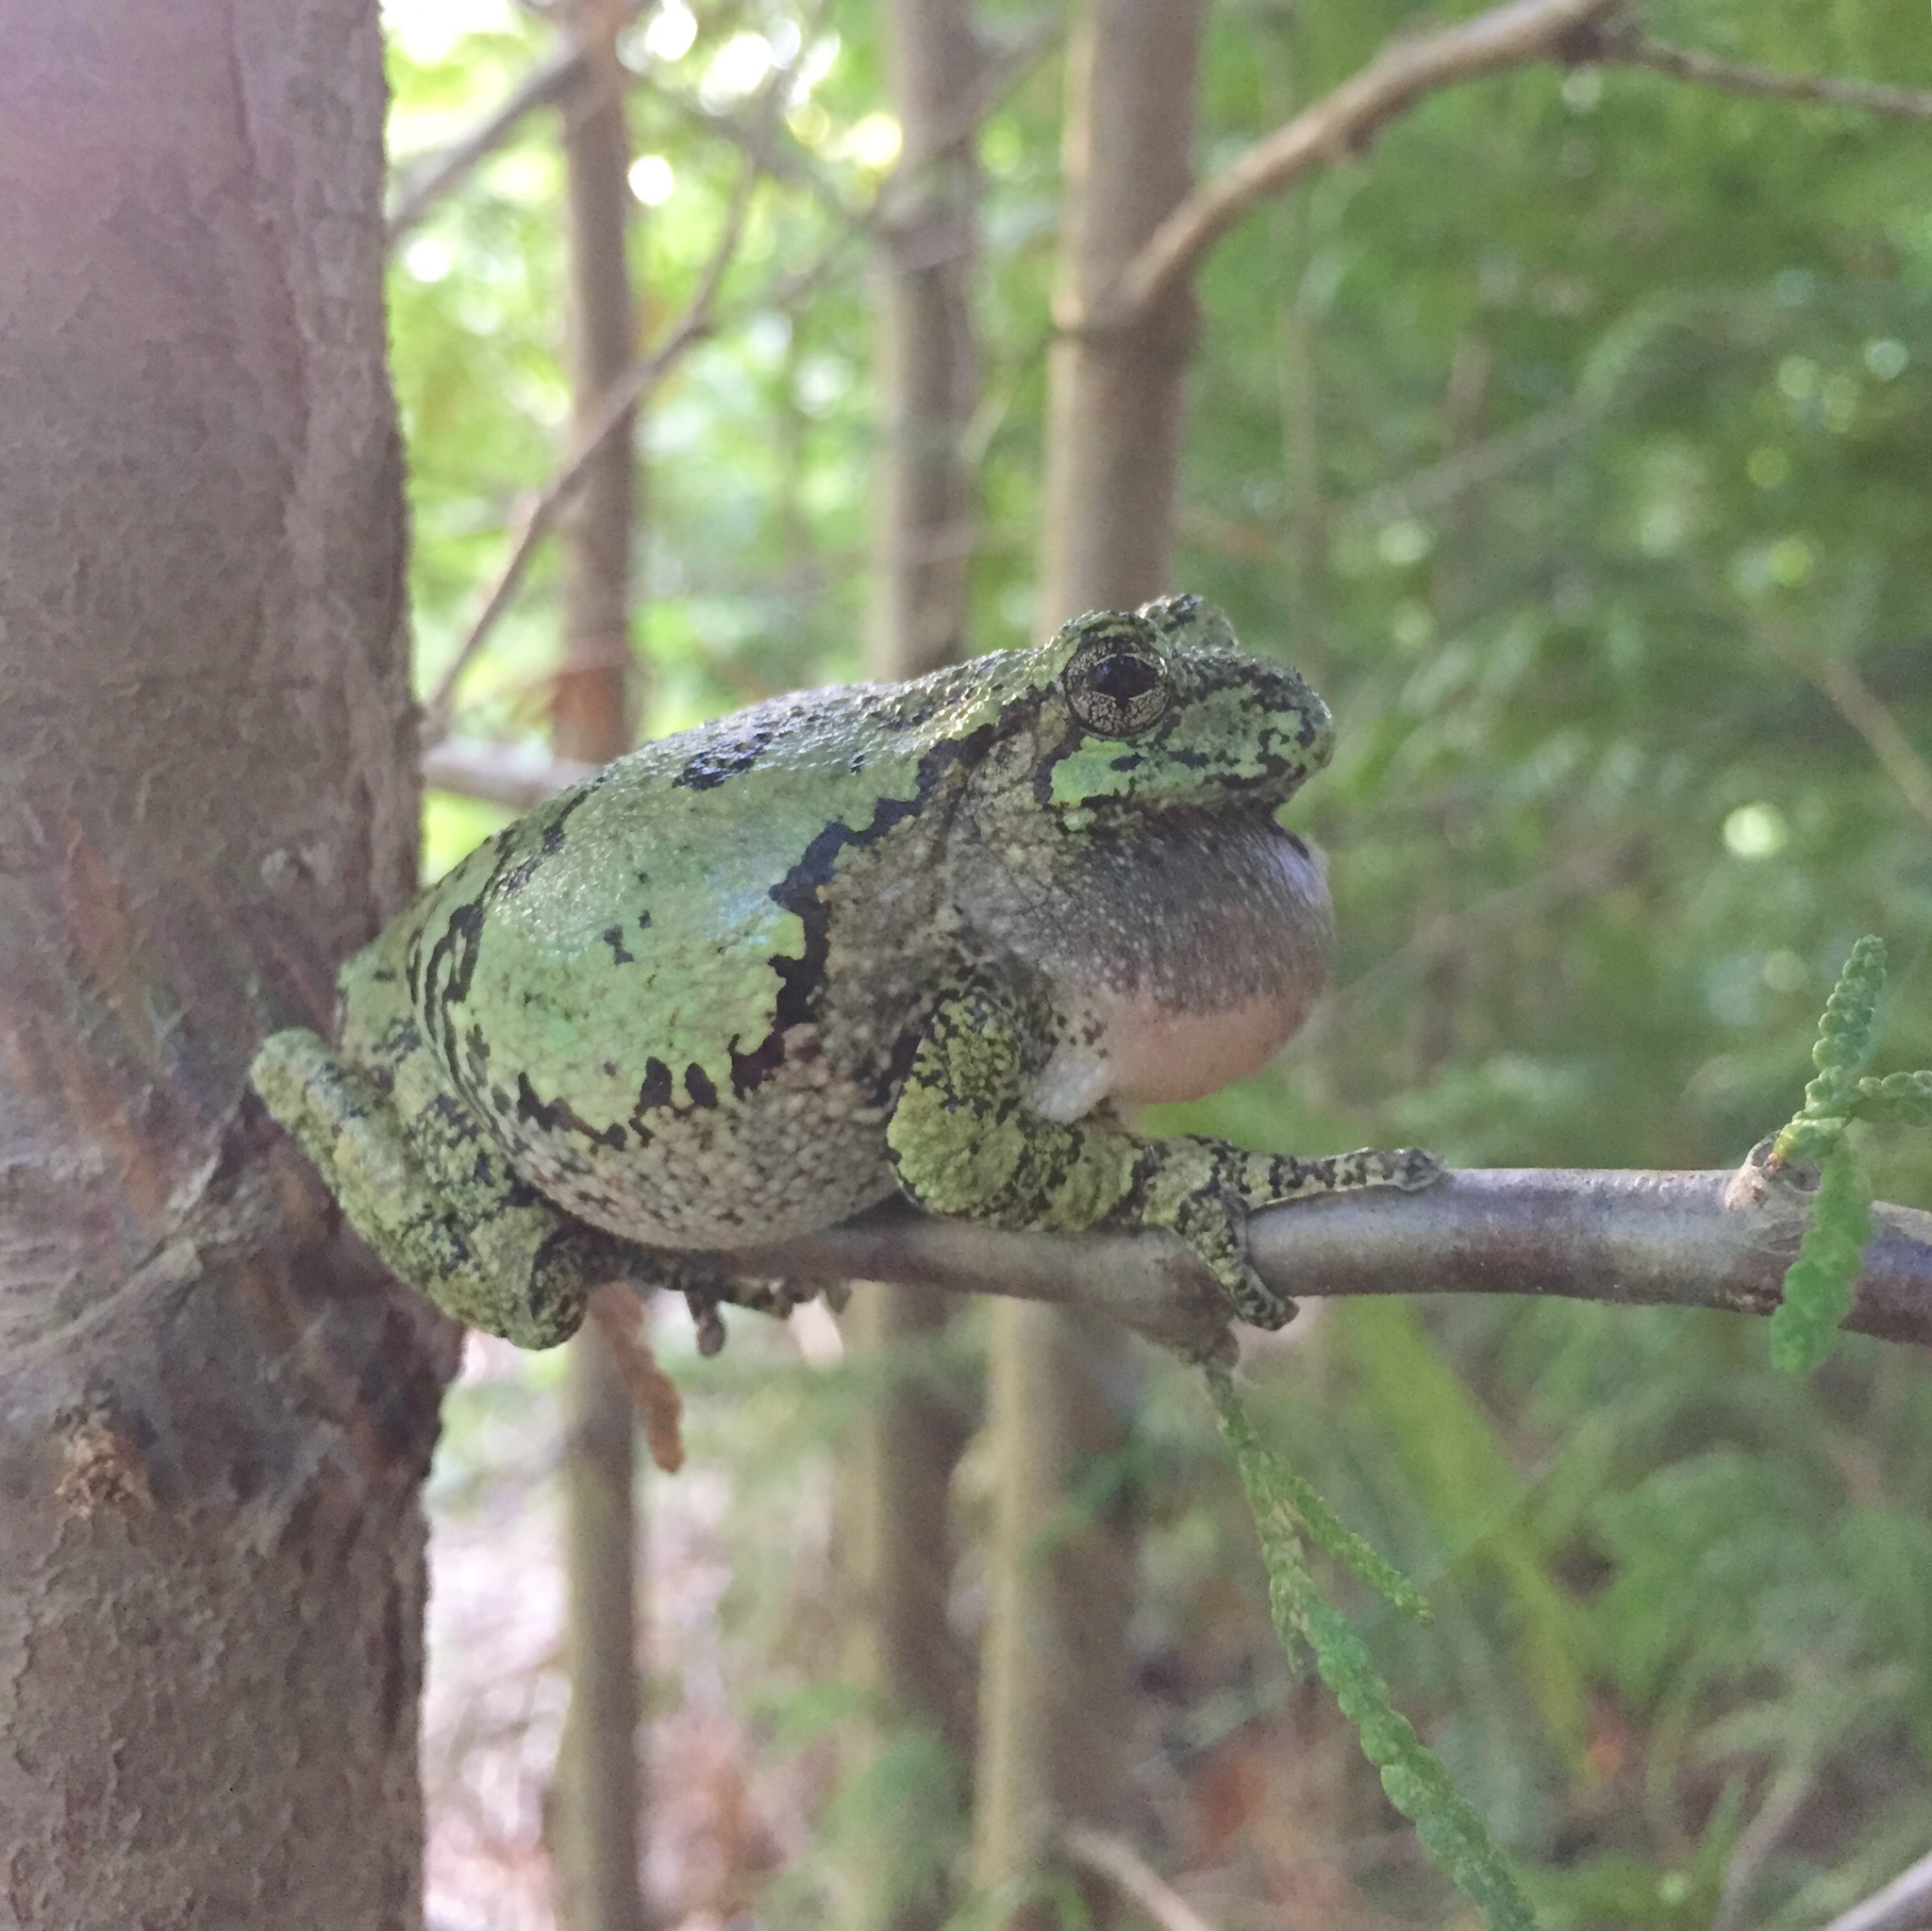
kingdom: Animalia
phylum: Chordata
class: Amphibia
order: Anura
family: Hylidae
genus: Dryophytes
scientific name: Dryophytes versicolor
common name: Gray treefrog
